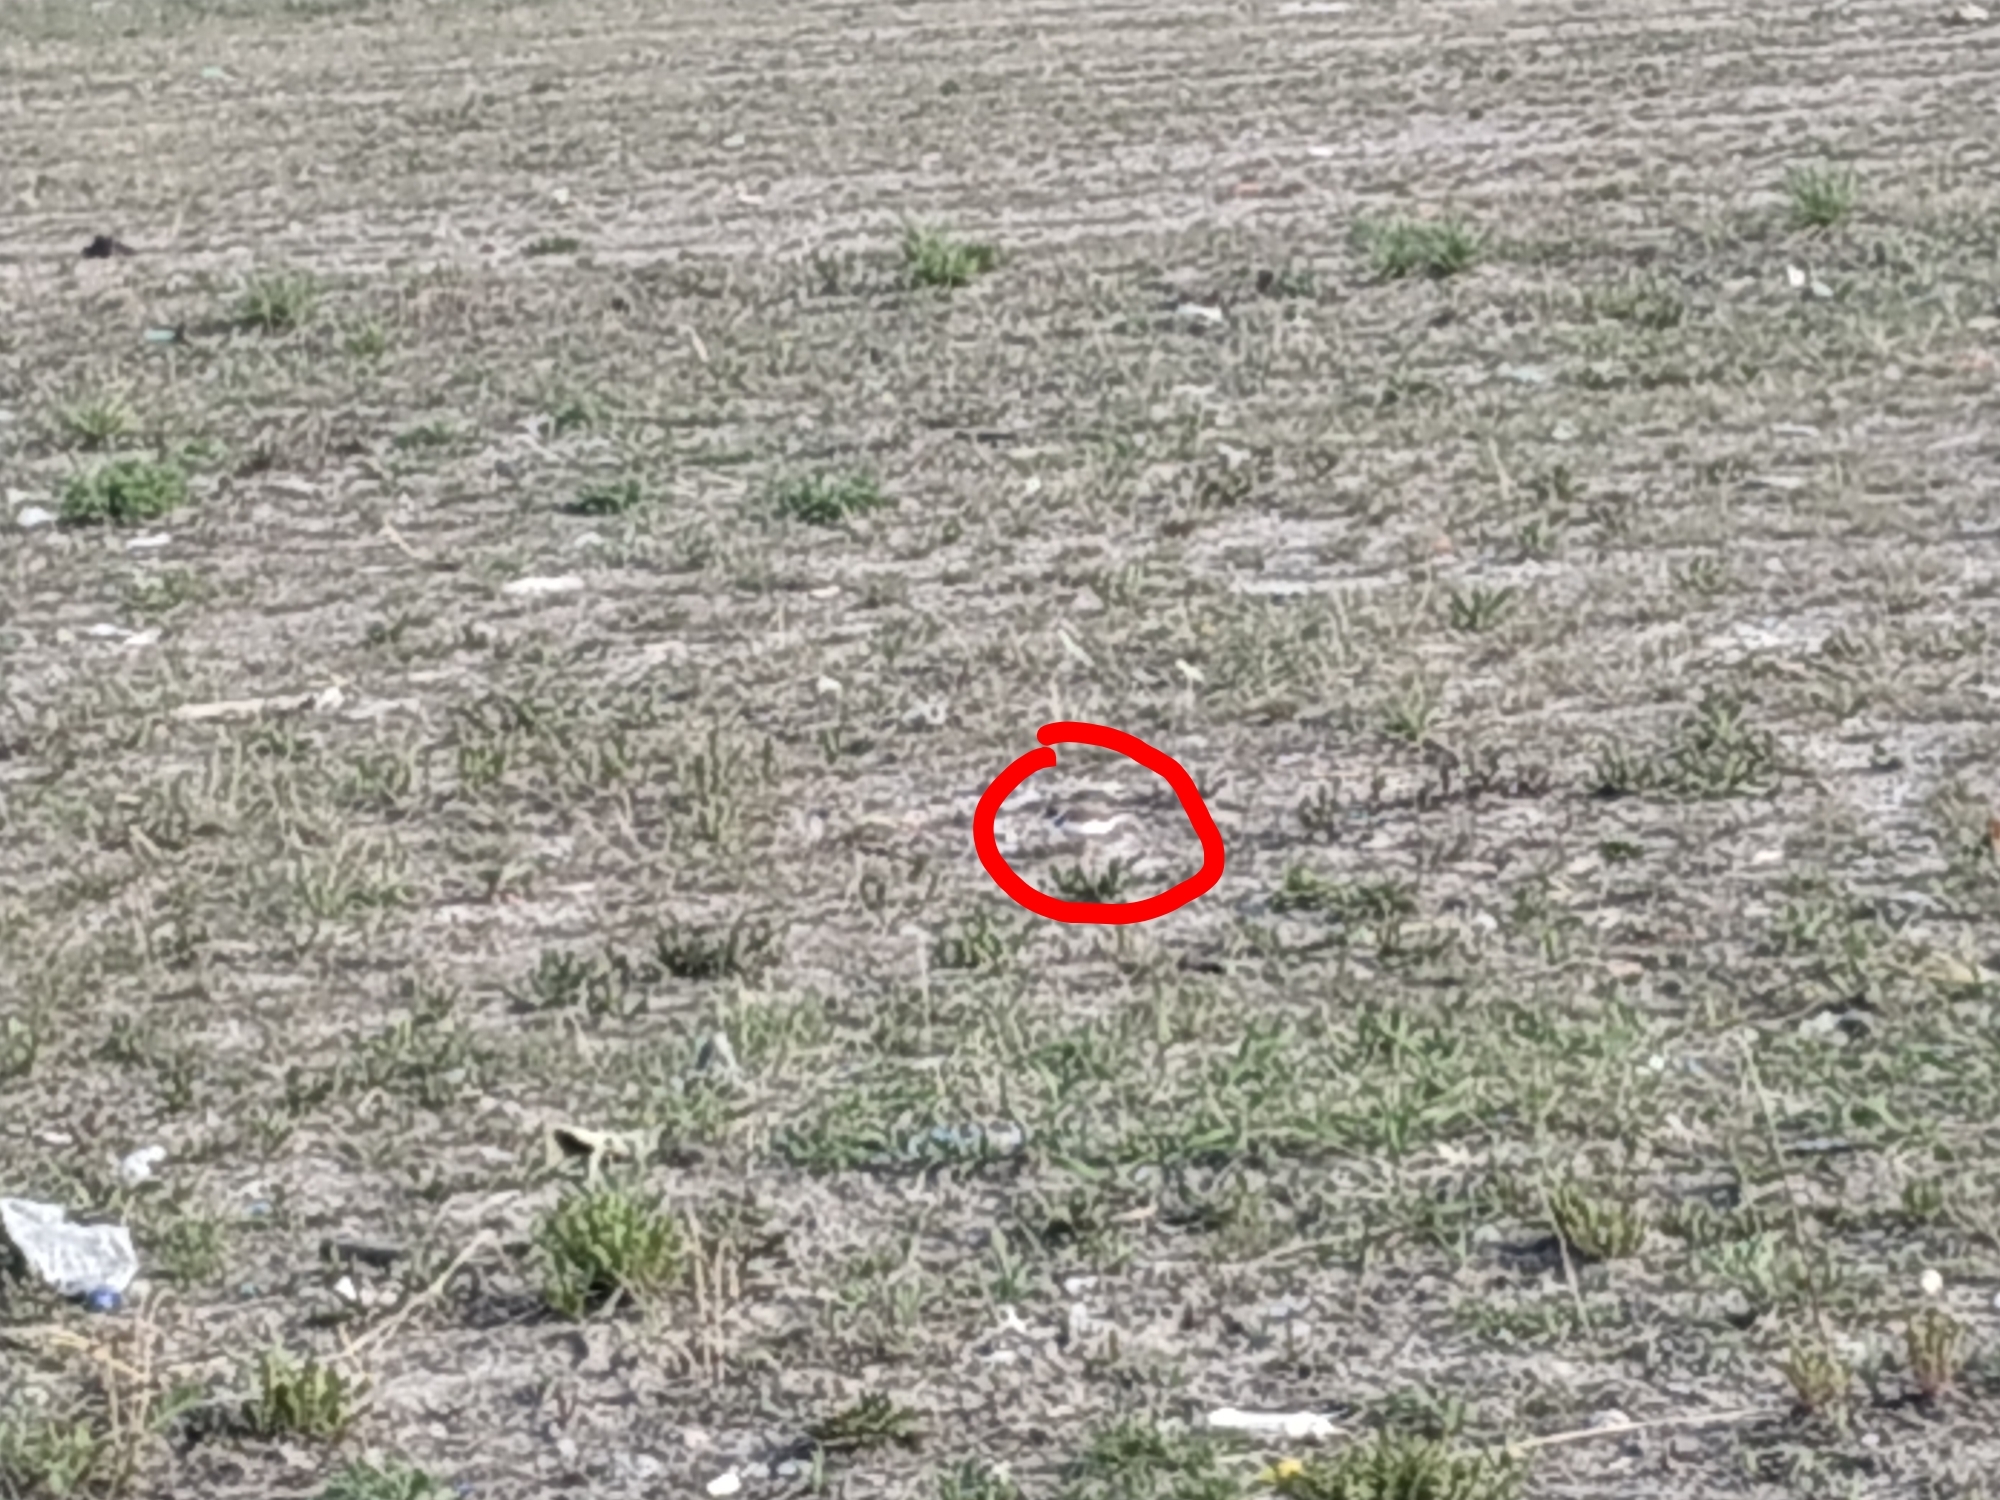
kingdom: Animalia
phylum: Chordata
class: Aves
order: Charadriiformes
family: Charadriidae
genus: Charadrius
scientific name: Charadrius dubius
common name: Little ringed plover
